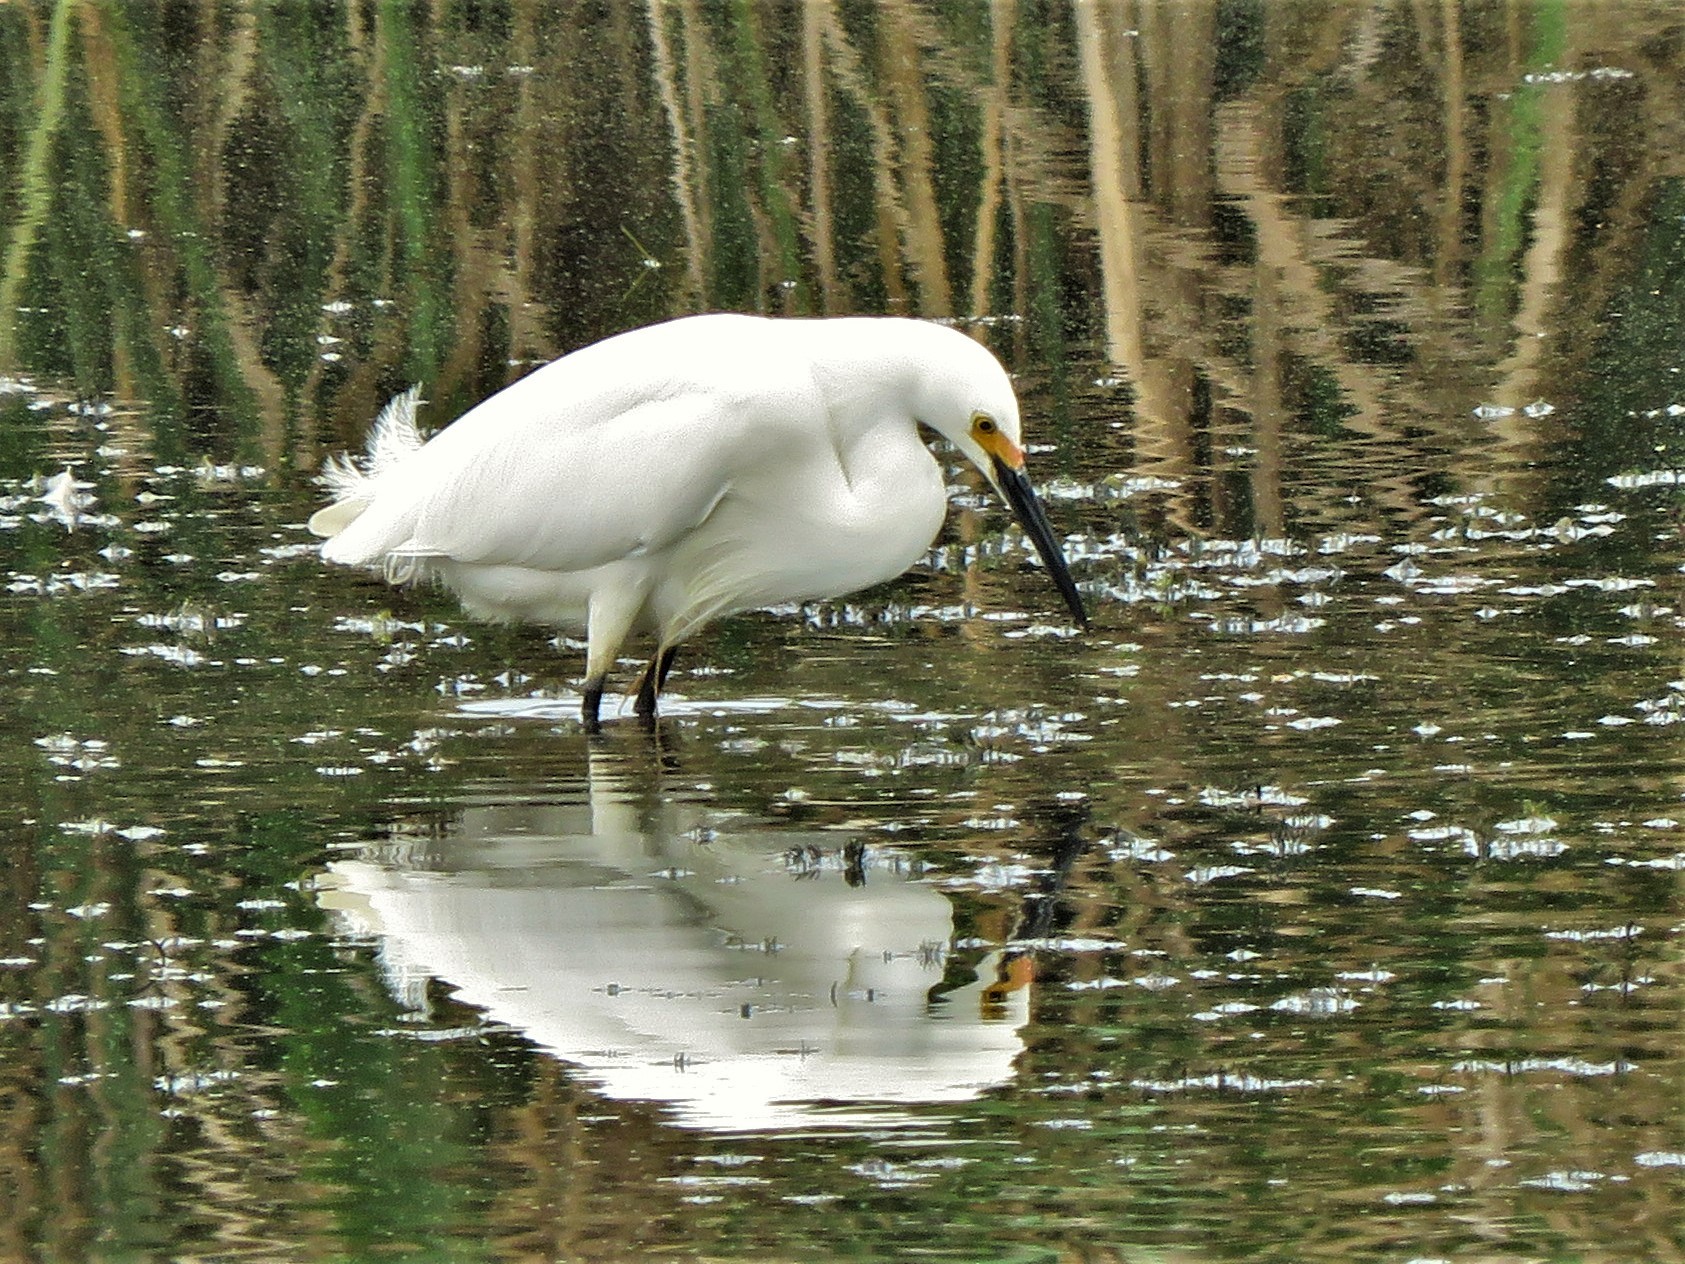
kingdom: Animalia
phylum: Chordata
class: Aves
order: Pelecaniformes
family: Ardeidae
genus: Egretta
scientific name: Egretta thula
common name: Snowy egret
